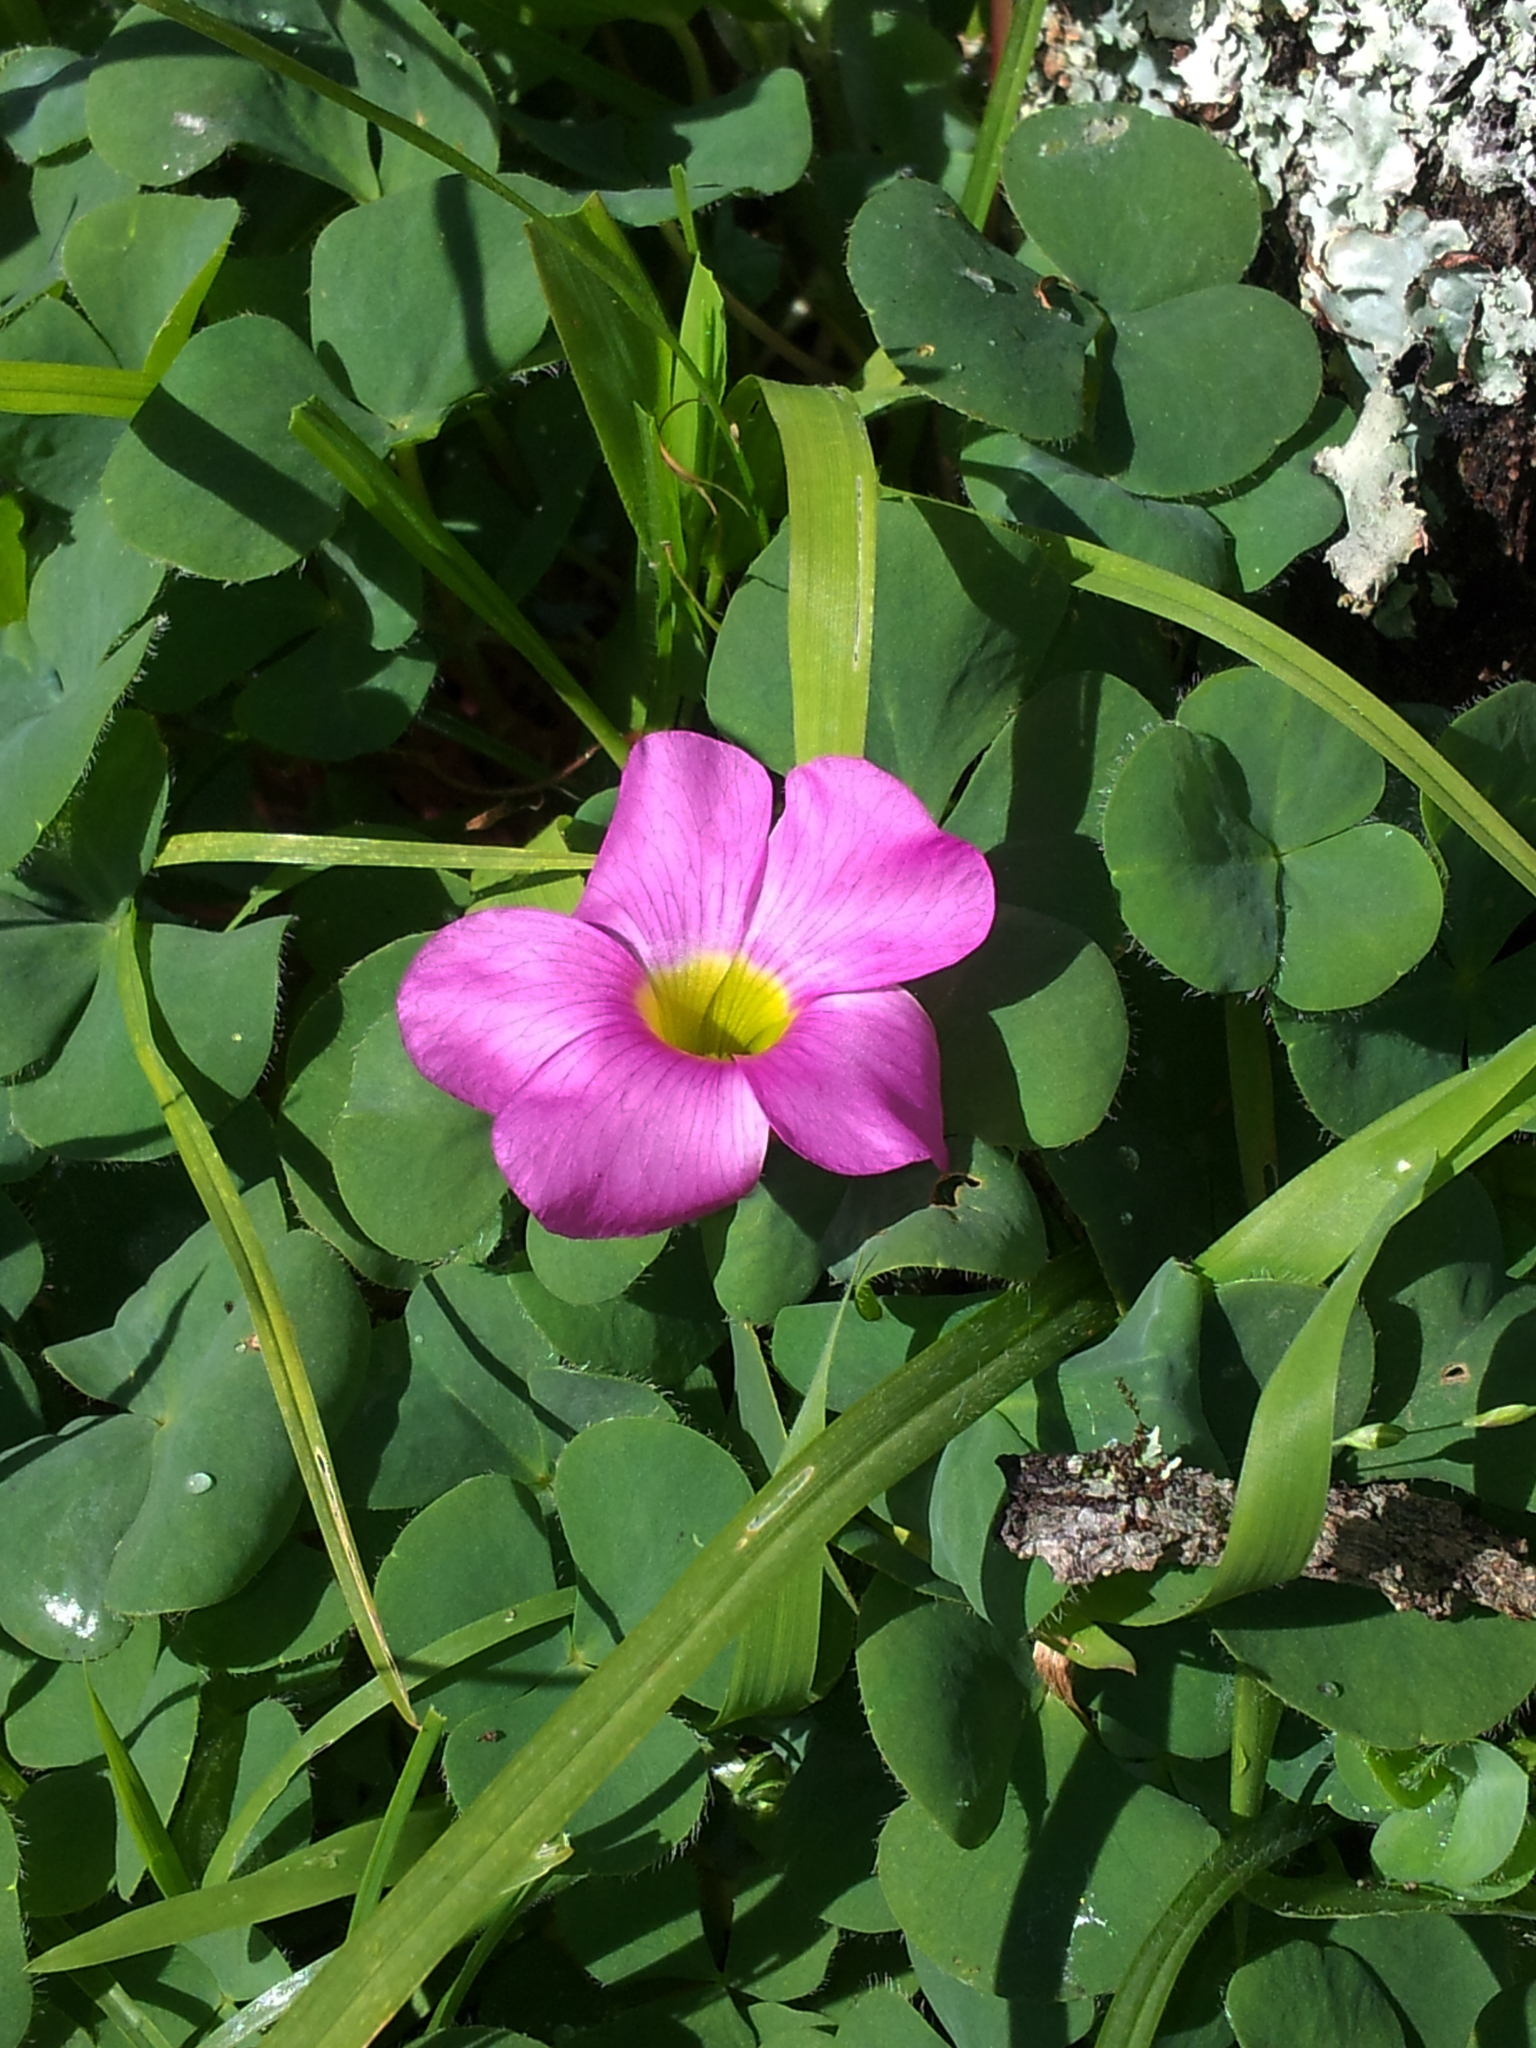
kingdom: Plantae
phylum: Tracheophyta
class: Magnoliopsida
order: Oxalidales
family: Oxalidaceae
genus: Oxalis
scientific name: Oxalis purpurea
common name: Purple woodsorrel
